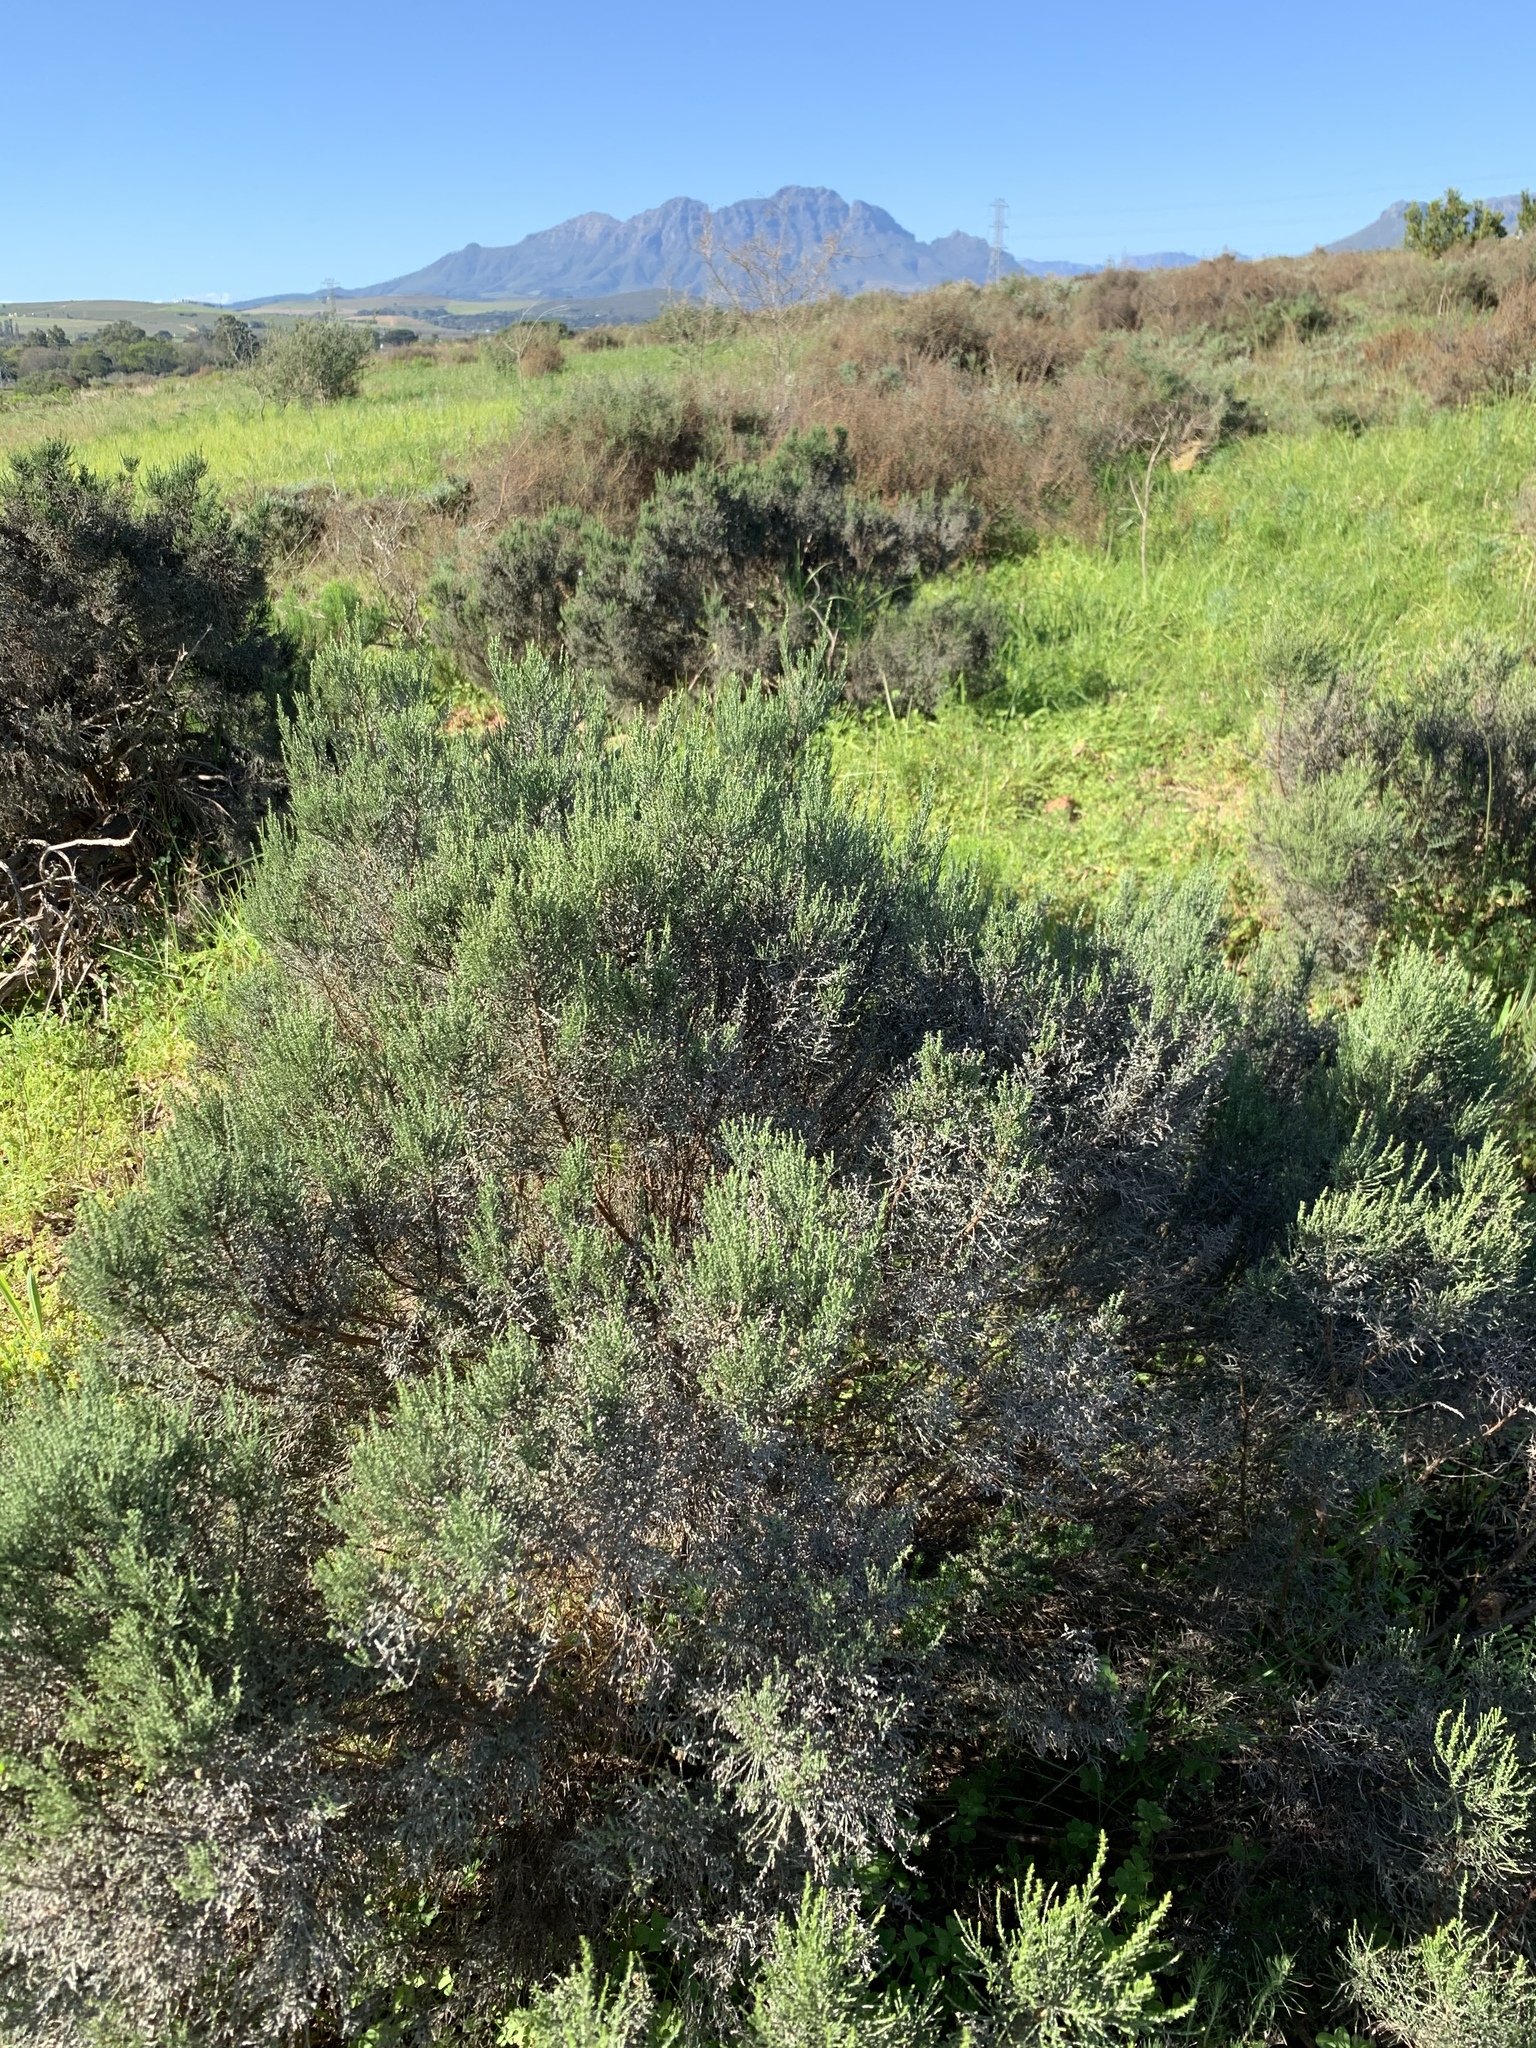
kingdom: Plantae
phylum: Tracheophyta
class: Magnoliopsida
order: Asterales
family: Asteraceae
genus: Dicerothamnus
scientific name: Dicerothamnus rhinocerotis
